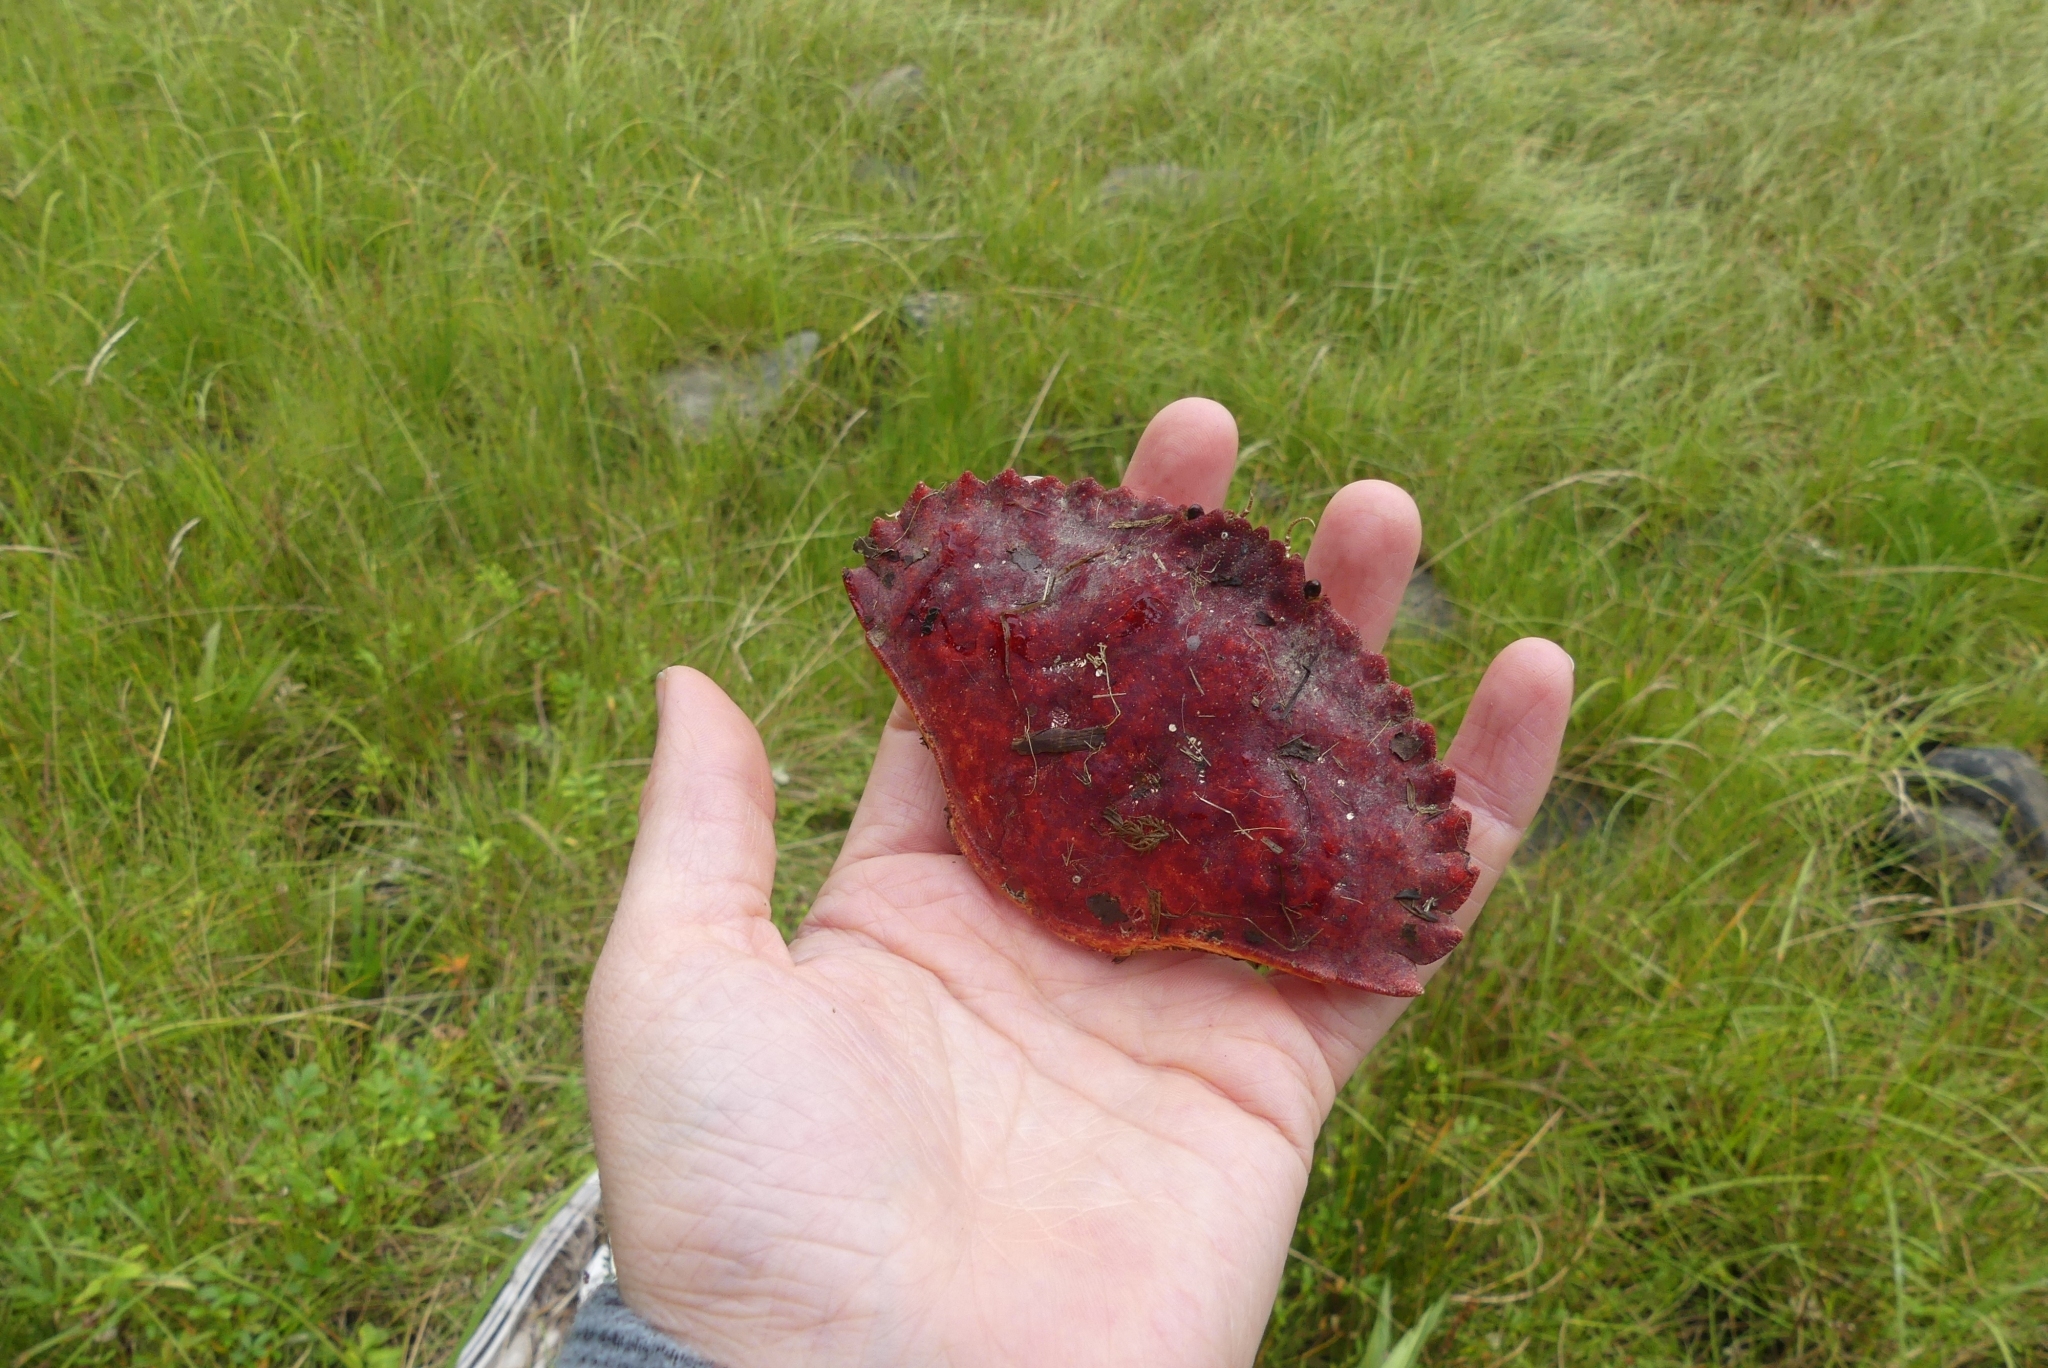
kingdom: Animalia
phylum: Arthropoda
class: Malacostraca
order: Decapoda
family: Cancridae
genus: Cancer
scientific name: Cancer productus
